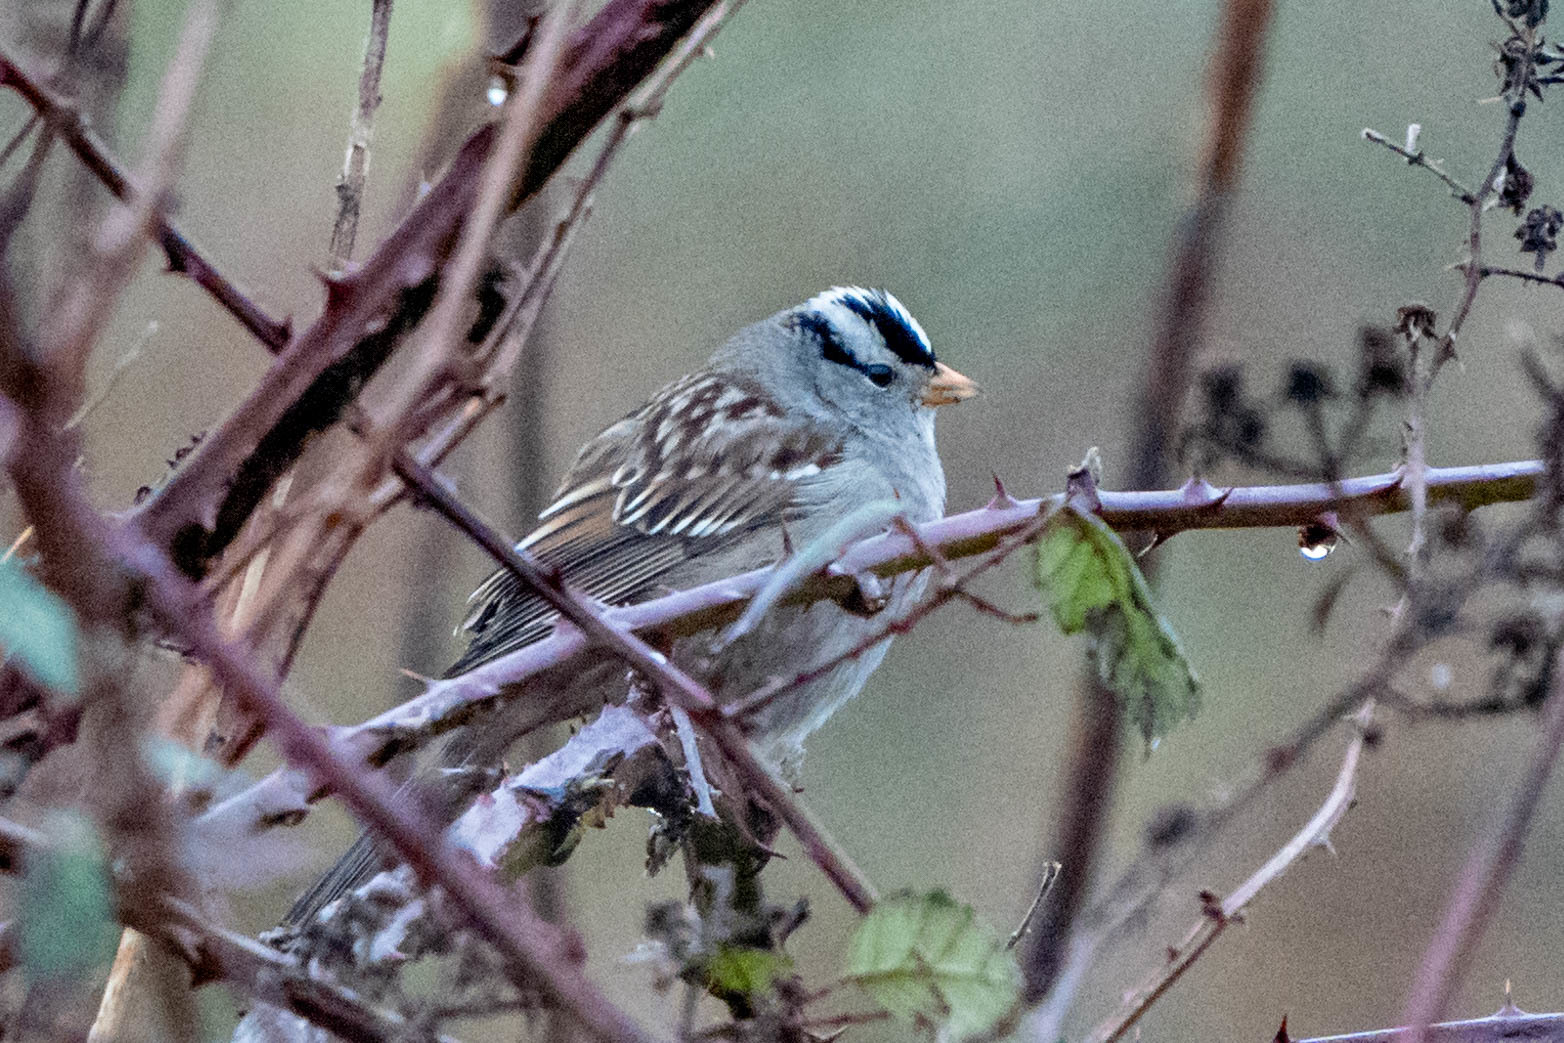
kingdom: Animalia
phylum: Chordata
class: Aves
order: Passeriformes
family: Passerellidae
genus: Zonotrichia
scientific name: Zonotrichia leucophrys
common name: White-crowned sparrow
